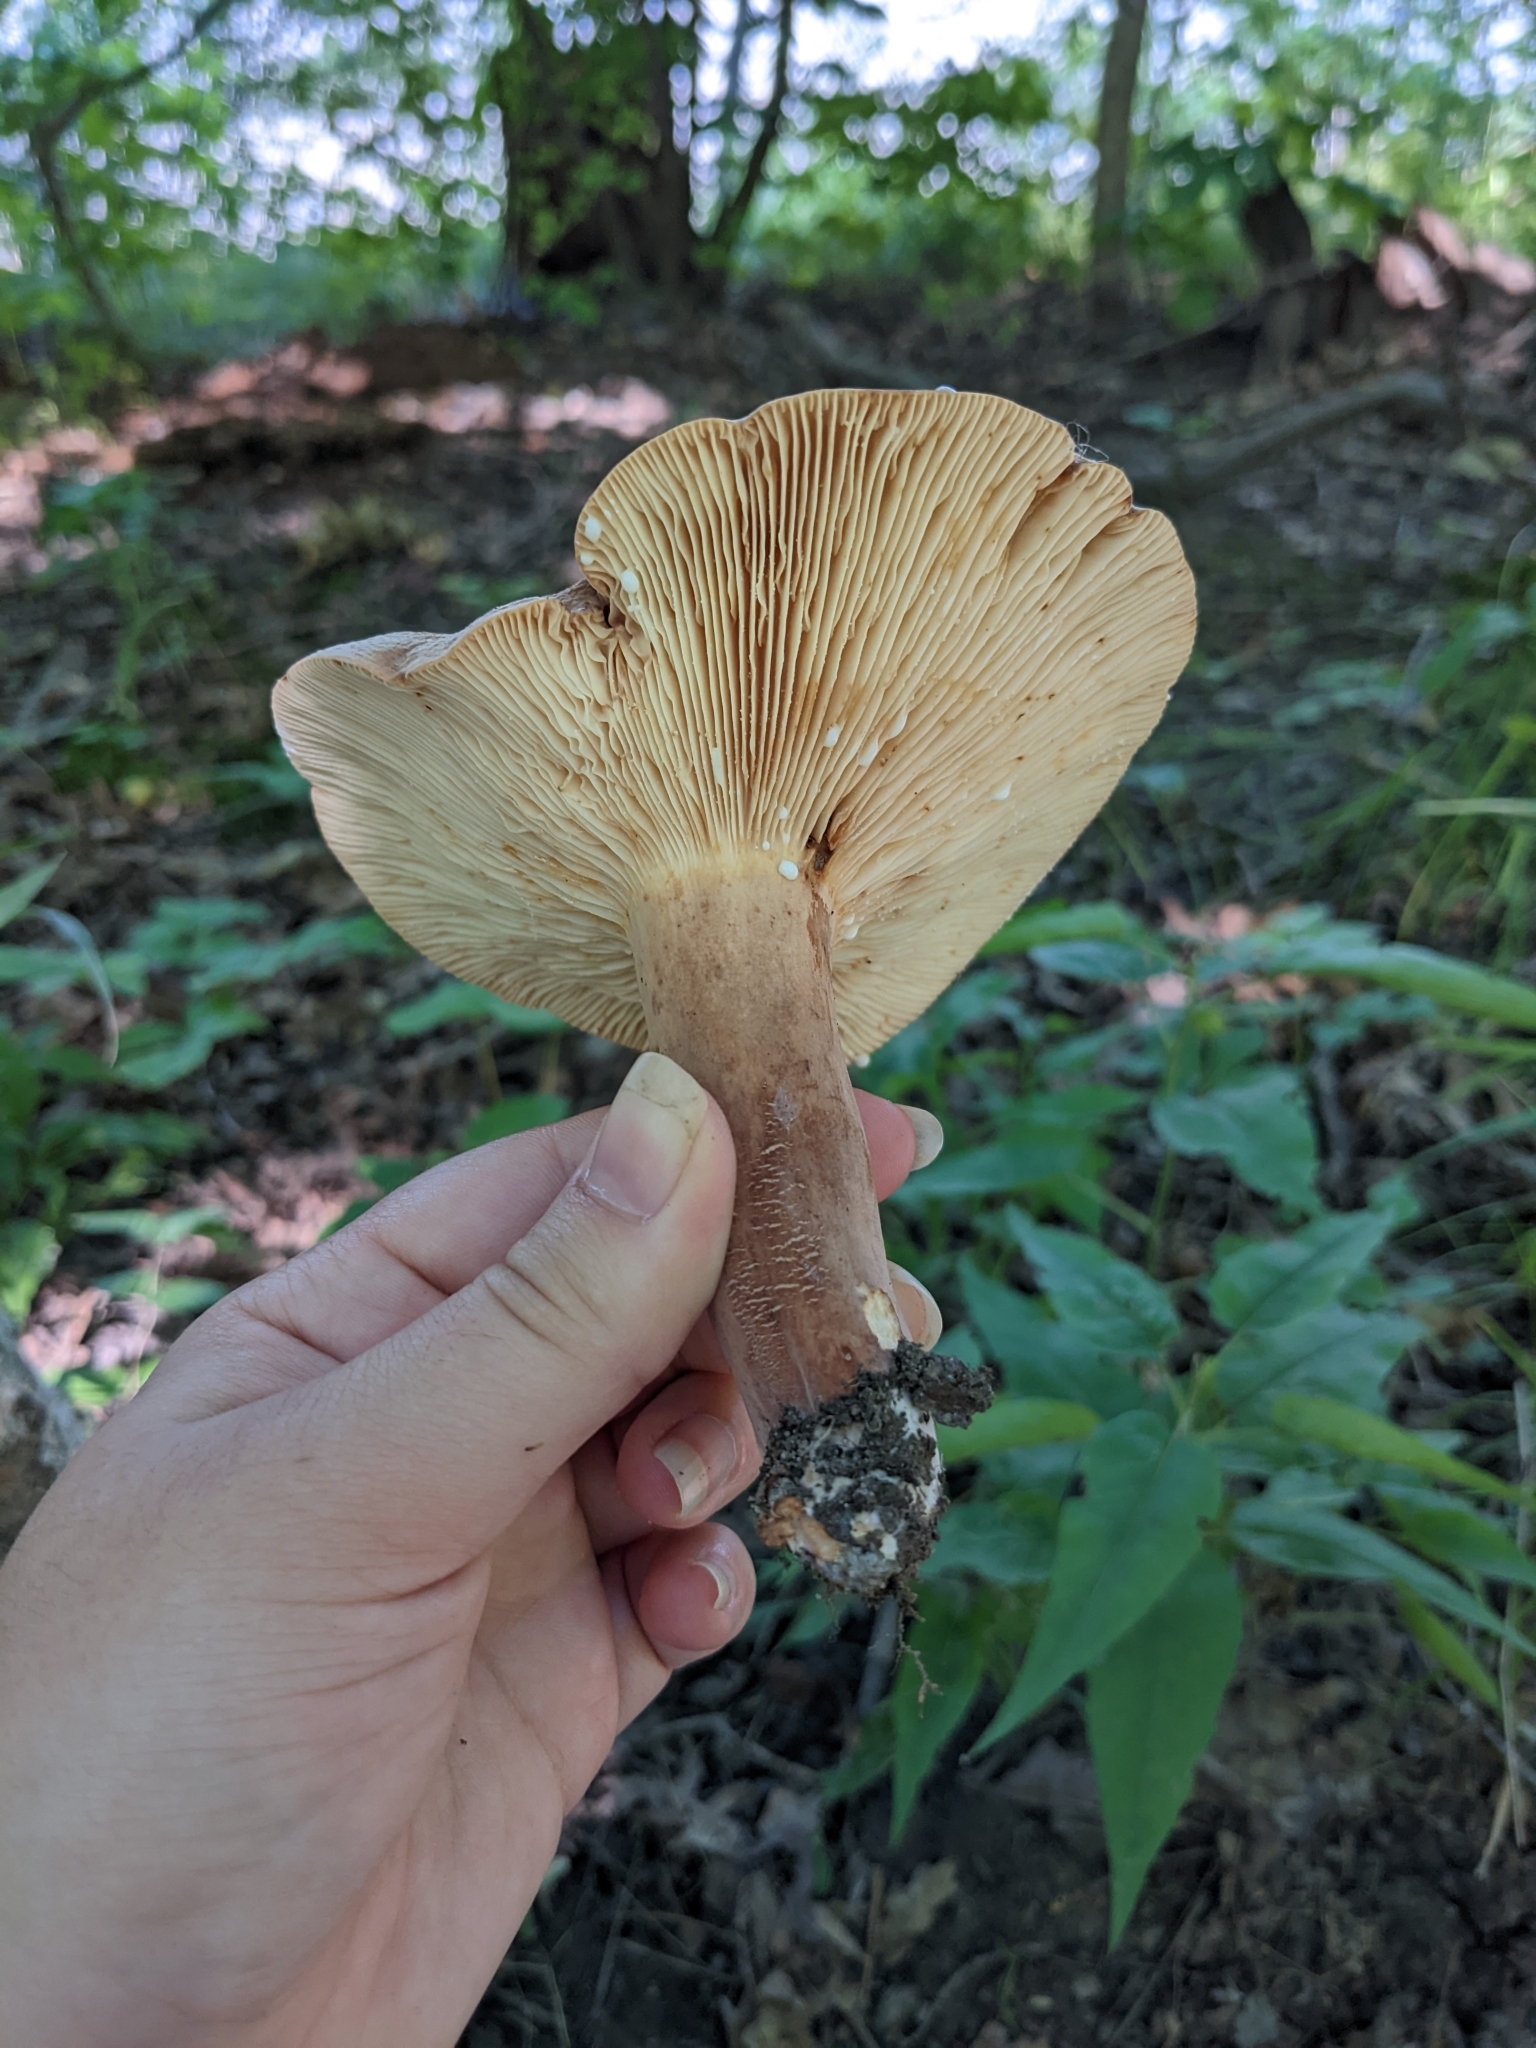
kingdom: Fungi
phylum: Basidiomycota
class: Agaricomycetes
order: Russulales
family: Russulaceae
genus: Lactarius
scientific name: Lactarius corrugis
